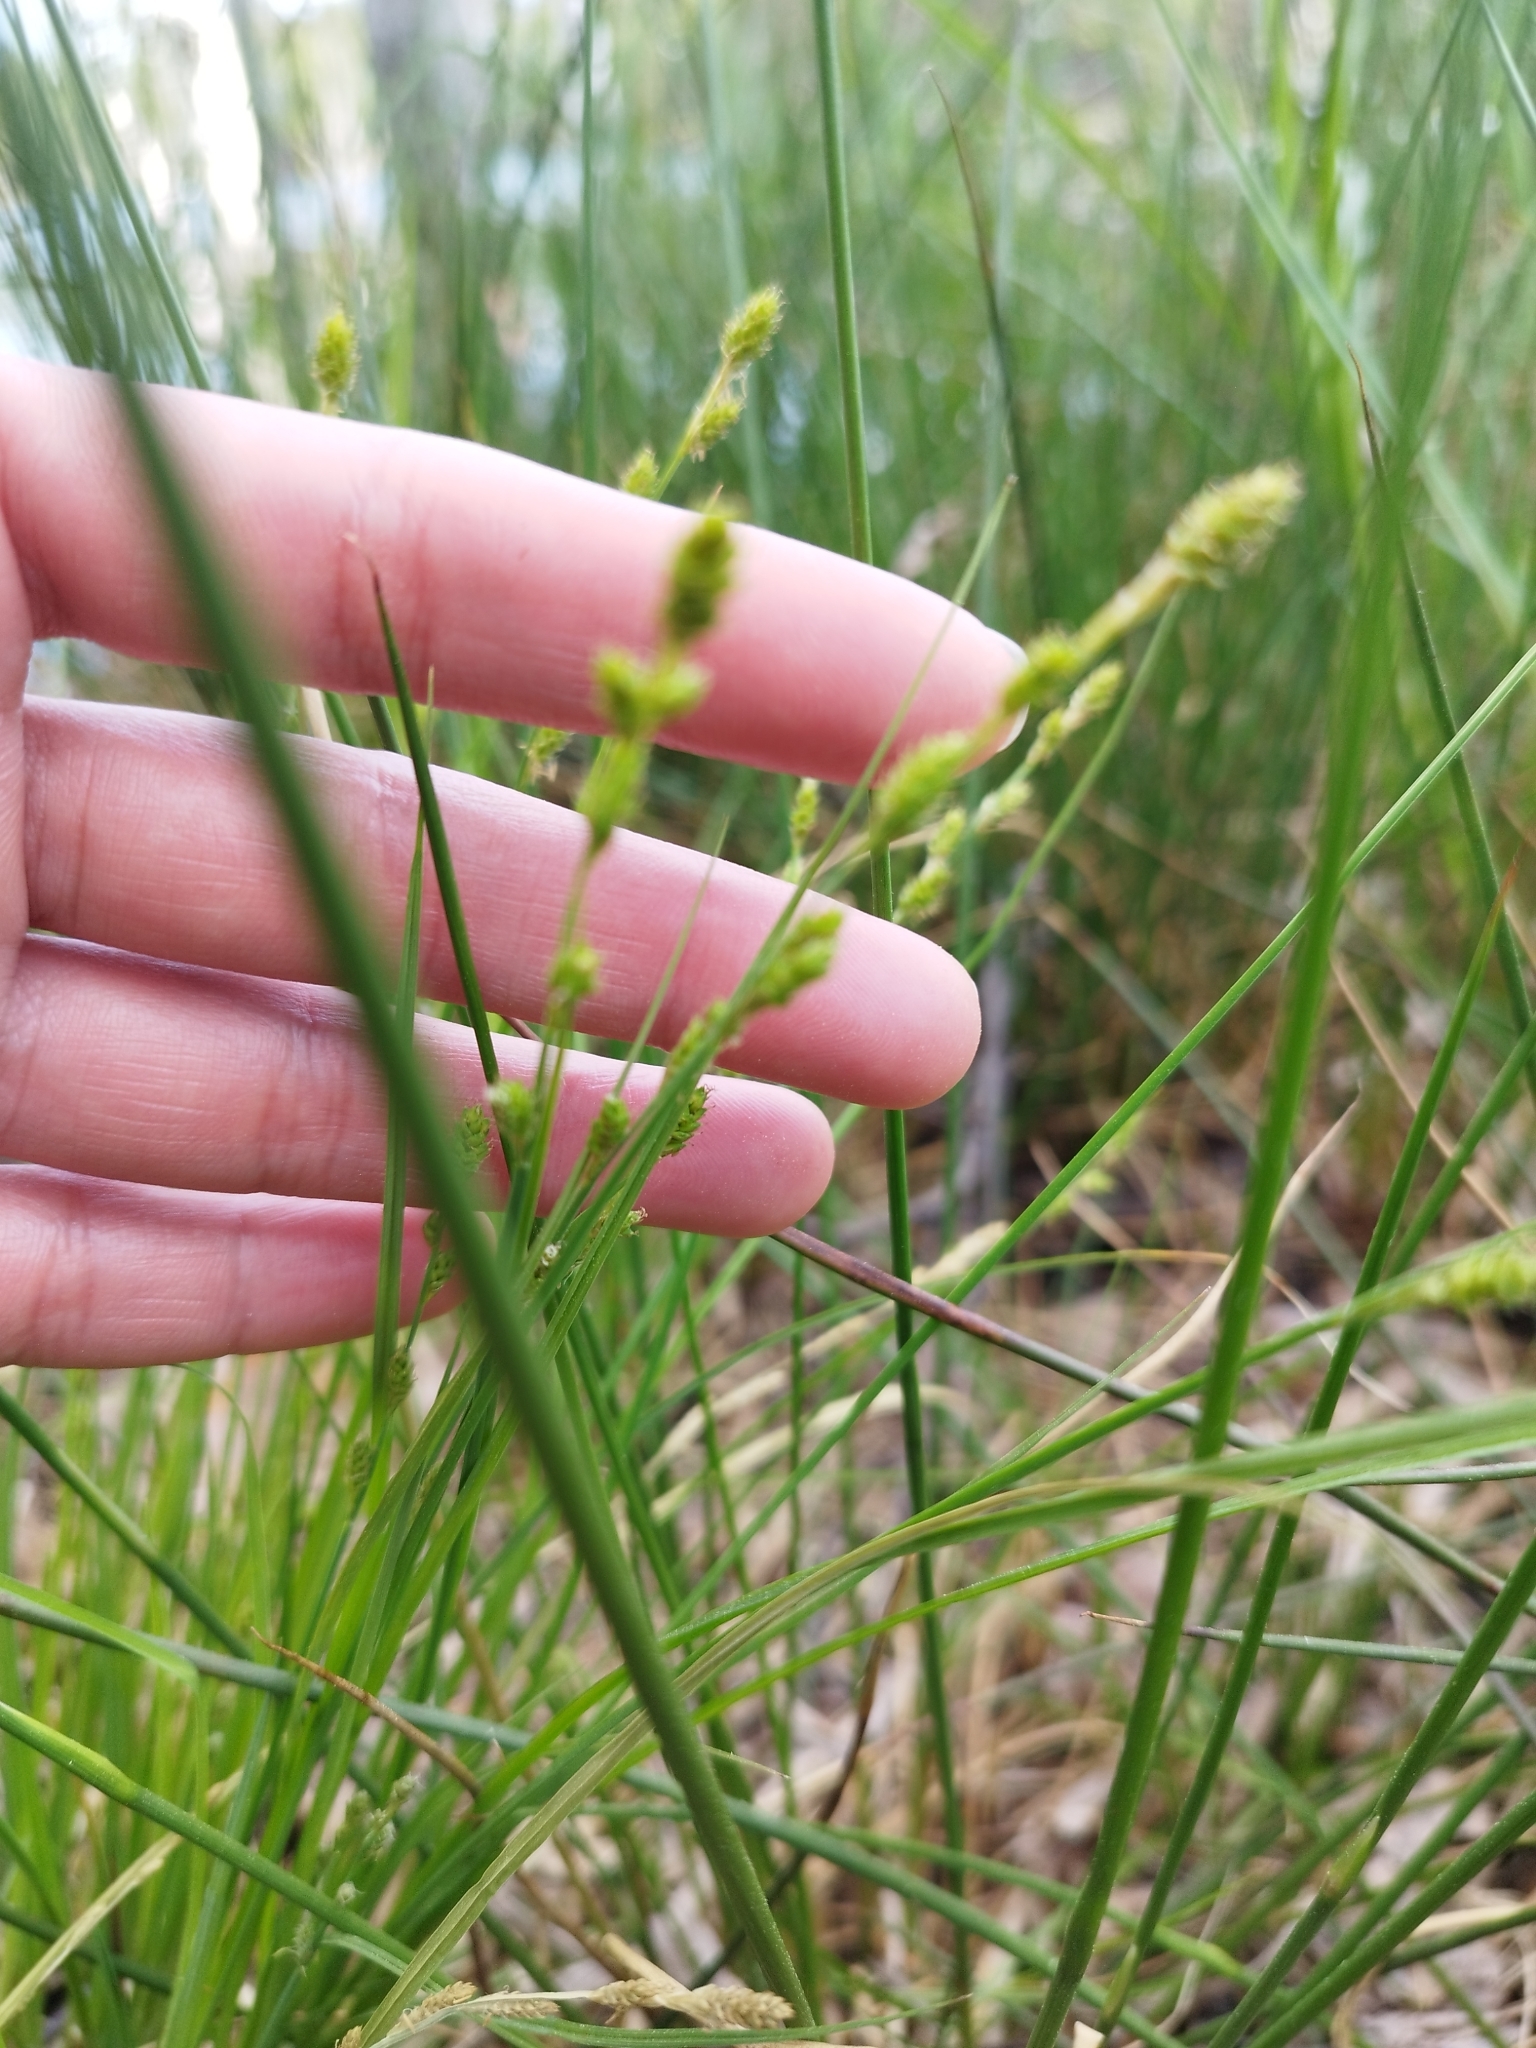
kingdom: Plantae
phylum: Tracheophyta
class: Liliopsida
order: Poales
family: Cyperaceae
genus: Carex
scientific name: Carex canescens
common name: White sedge
